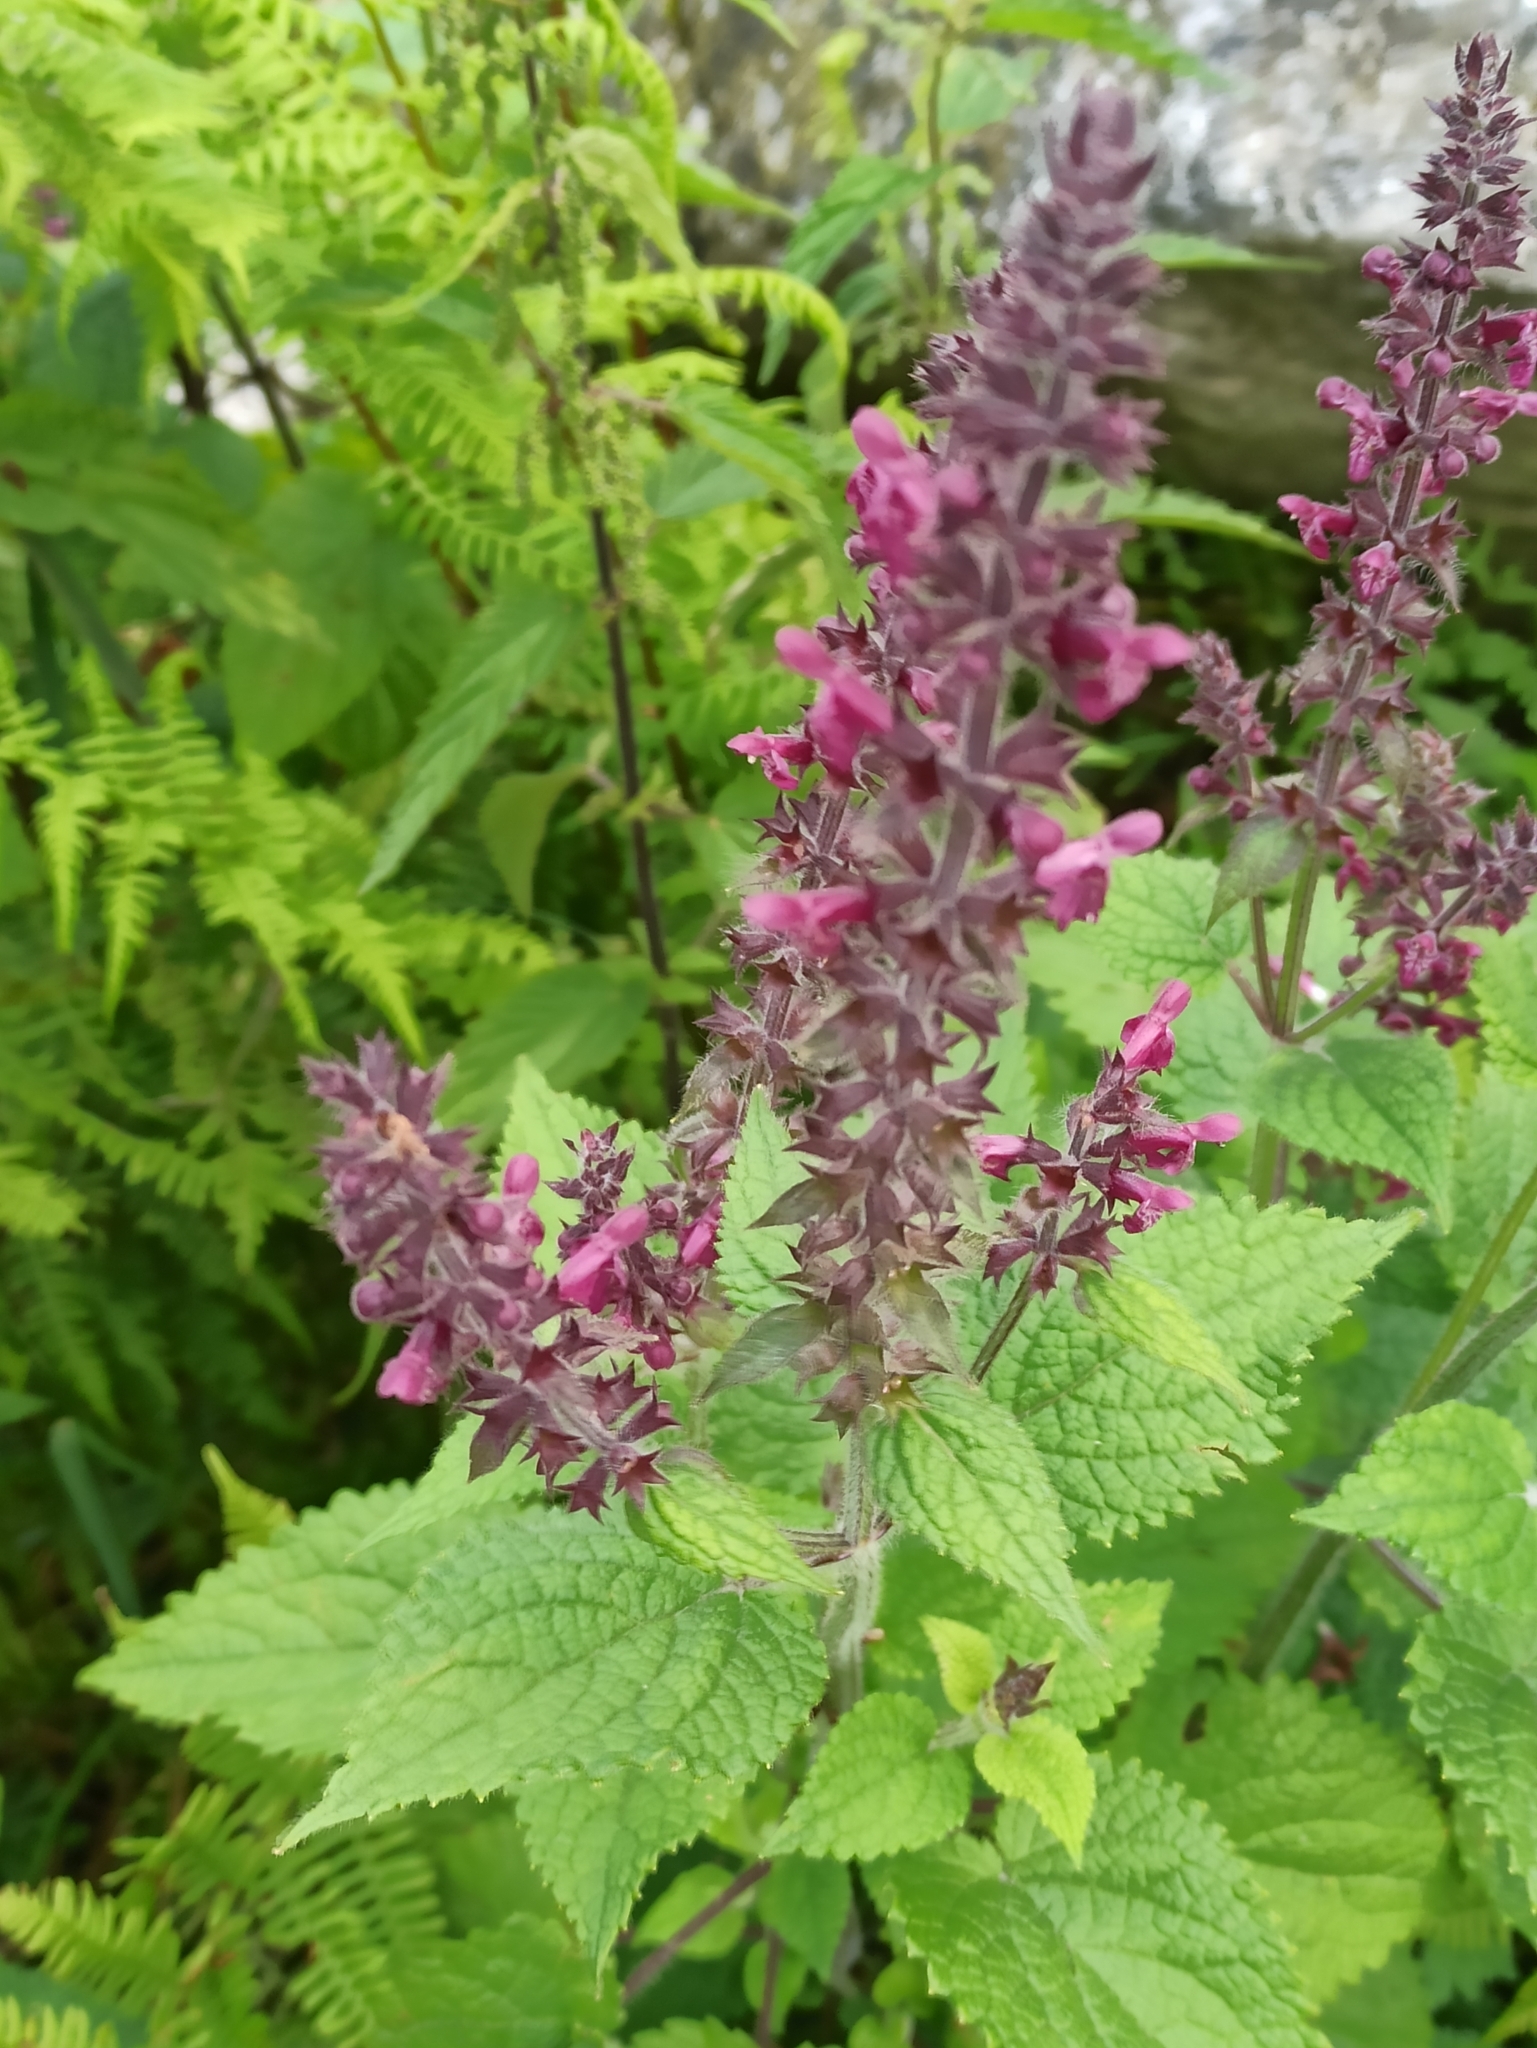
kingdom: Plantae
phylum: Tracheophyta
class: Magnoliopsida
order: Lamiales
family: Lamiaceae
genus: Stachys
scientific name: Stachys sylvatica
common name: Hedge woundwort
